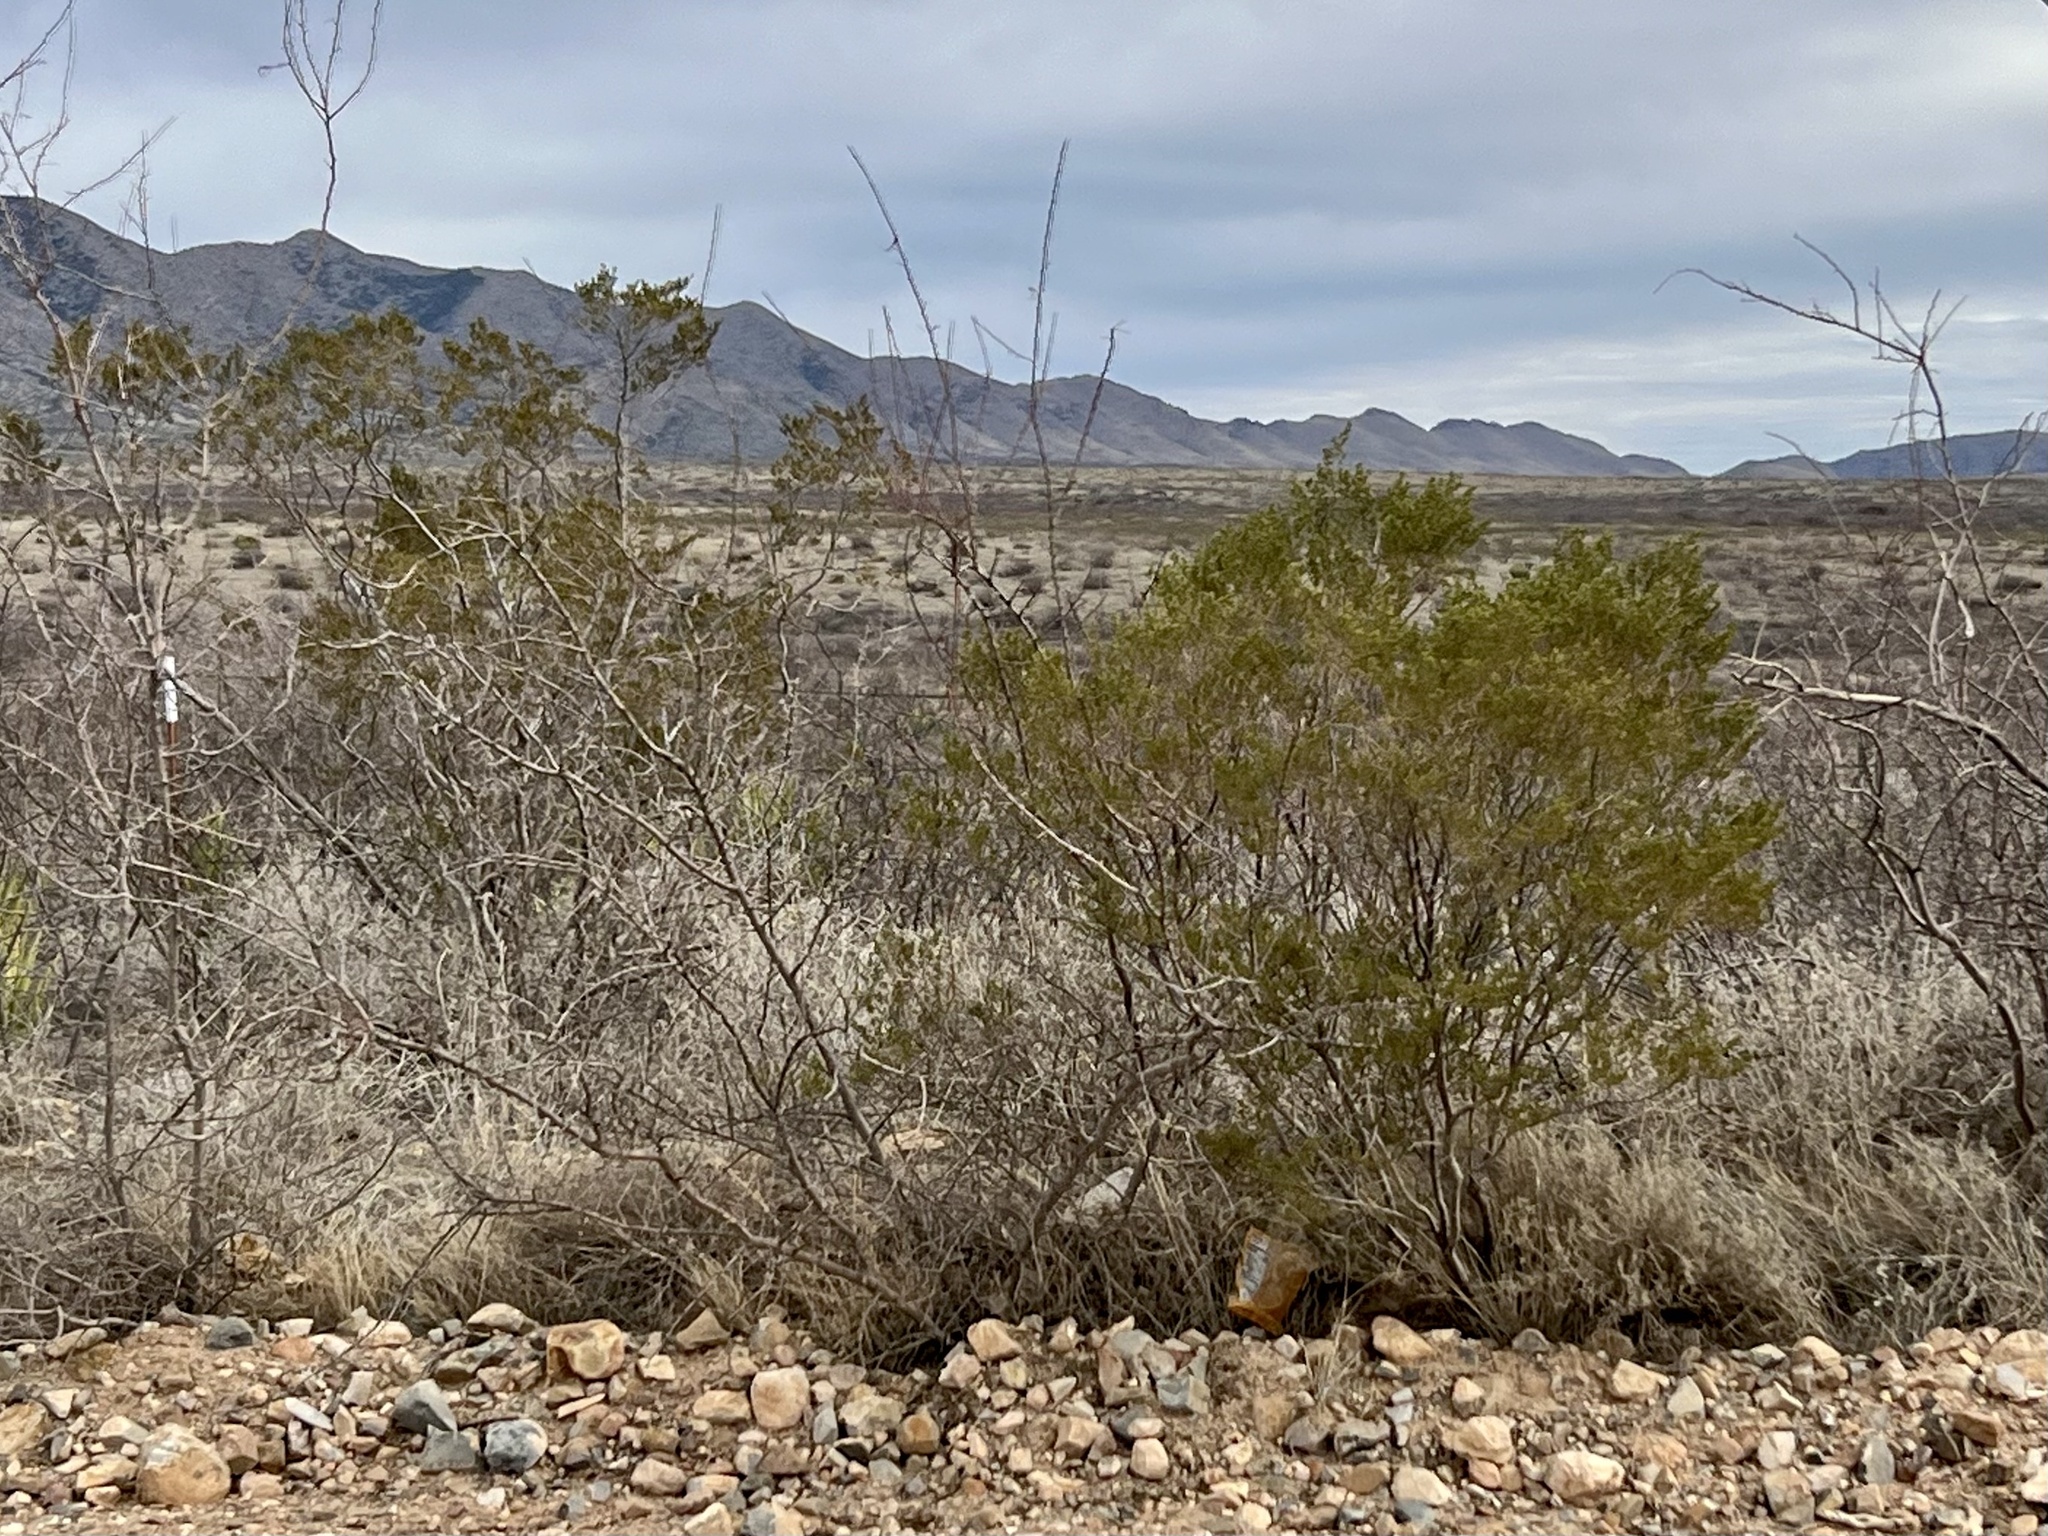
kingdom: Plantae
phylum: Tracheophyta
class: Magnoliopsida
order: Zygophyllales
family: Zygophyllaceae
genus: Larrea
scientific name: Larrea tridentata
